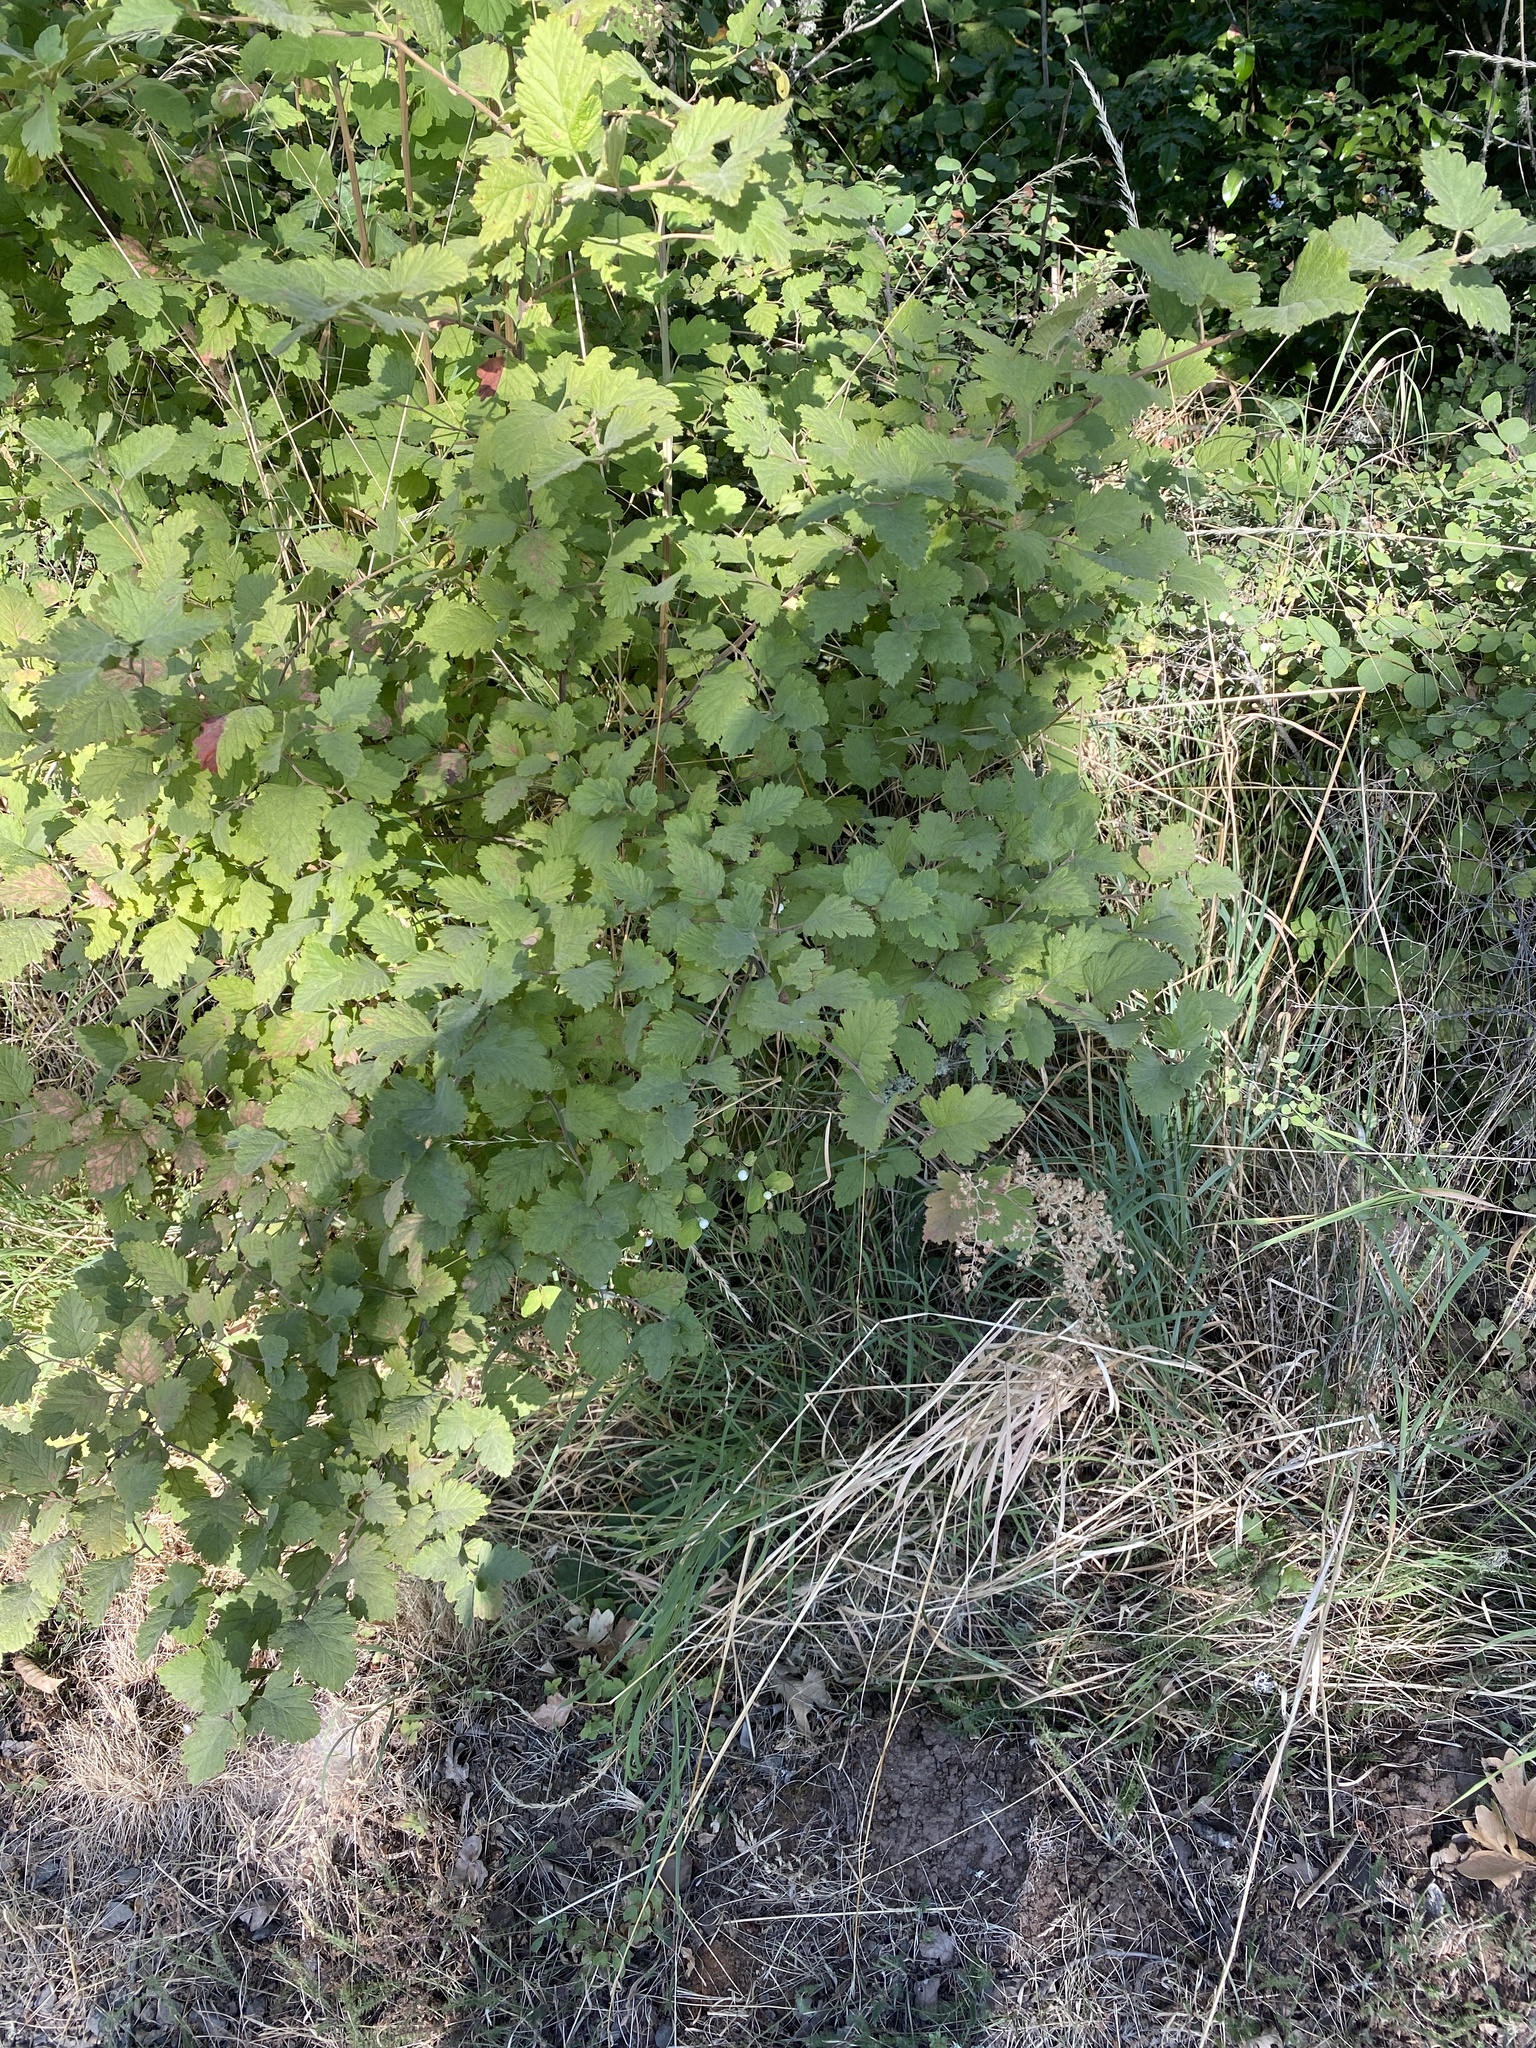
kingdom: Plantae
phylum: Tracheophyta
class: Magnoliopsida
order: Rosales
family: Rosaceae
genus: Holodiscus
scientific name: Holodiscus discolor
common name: Oceanspray
